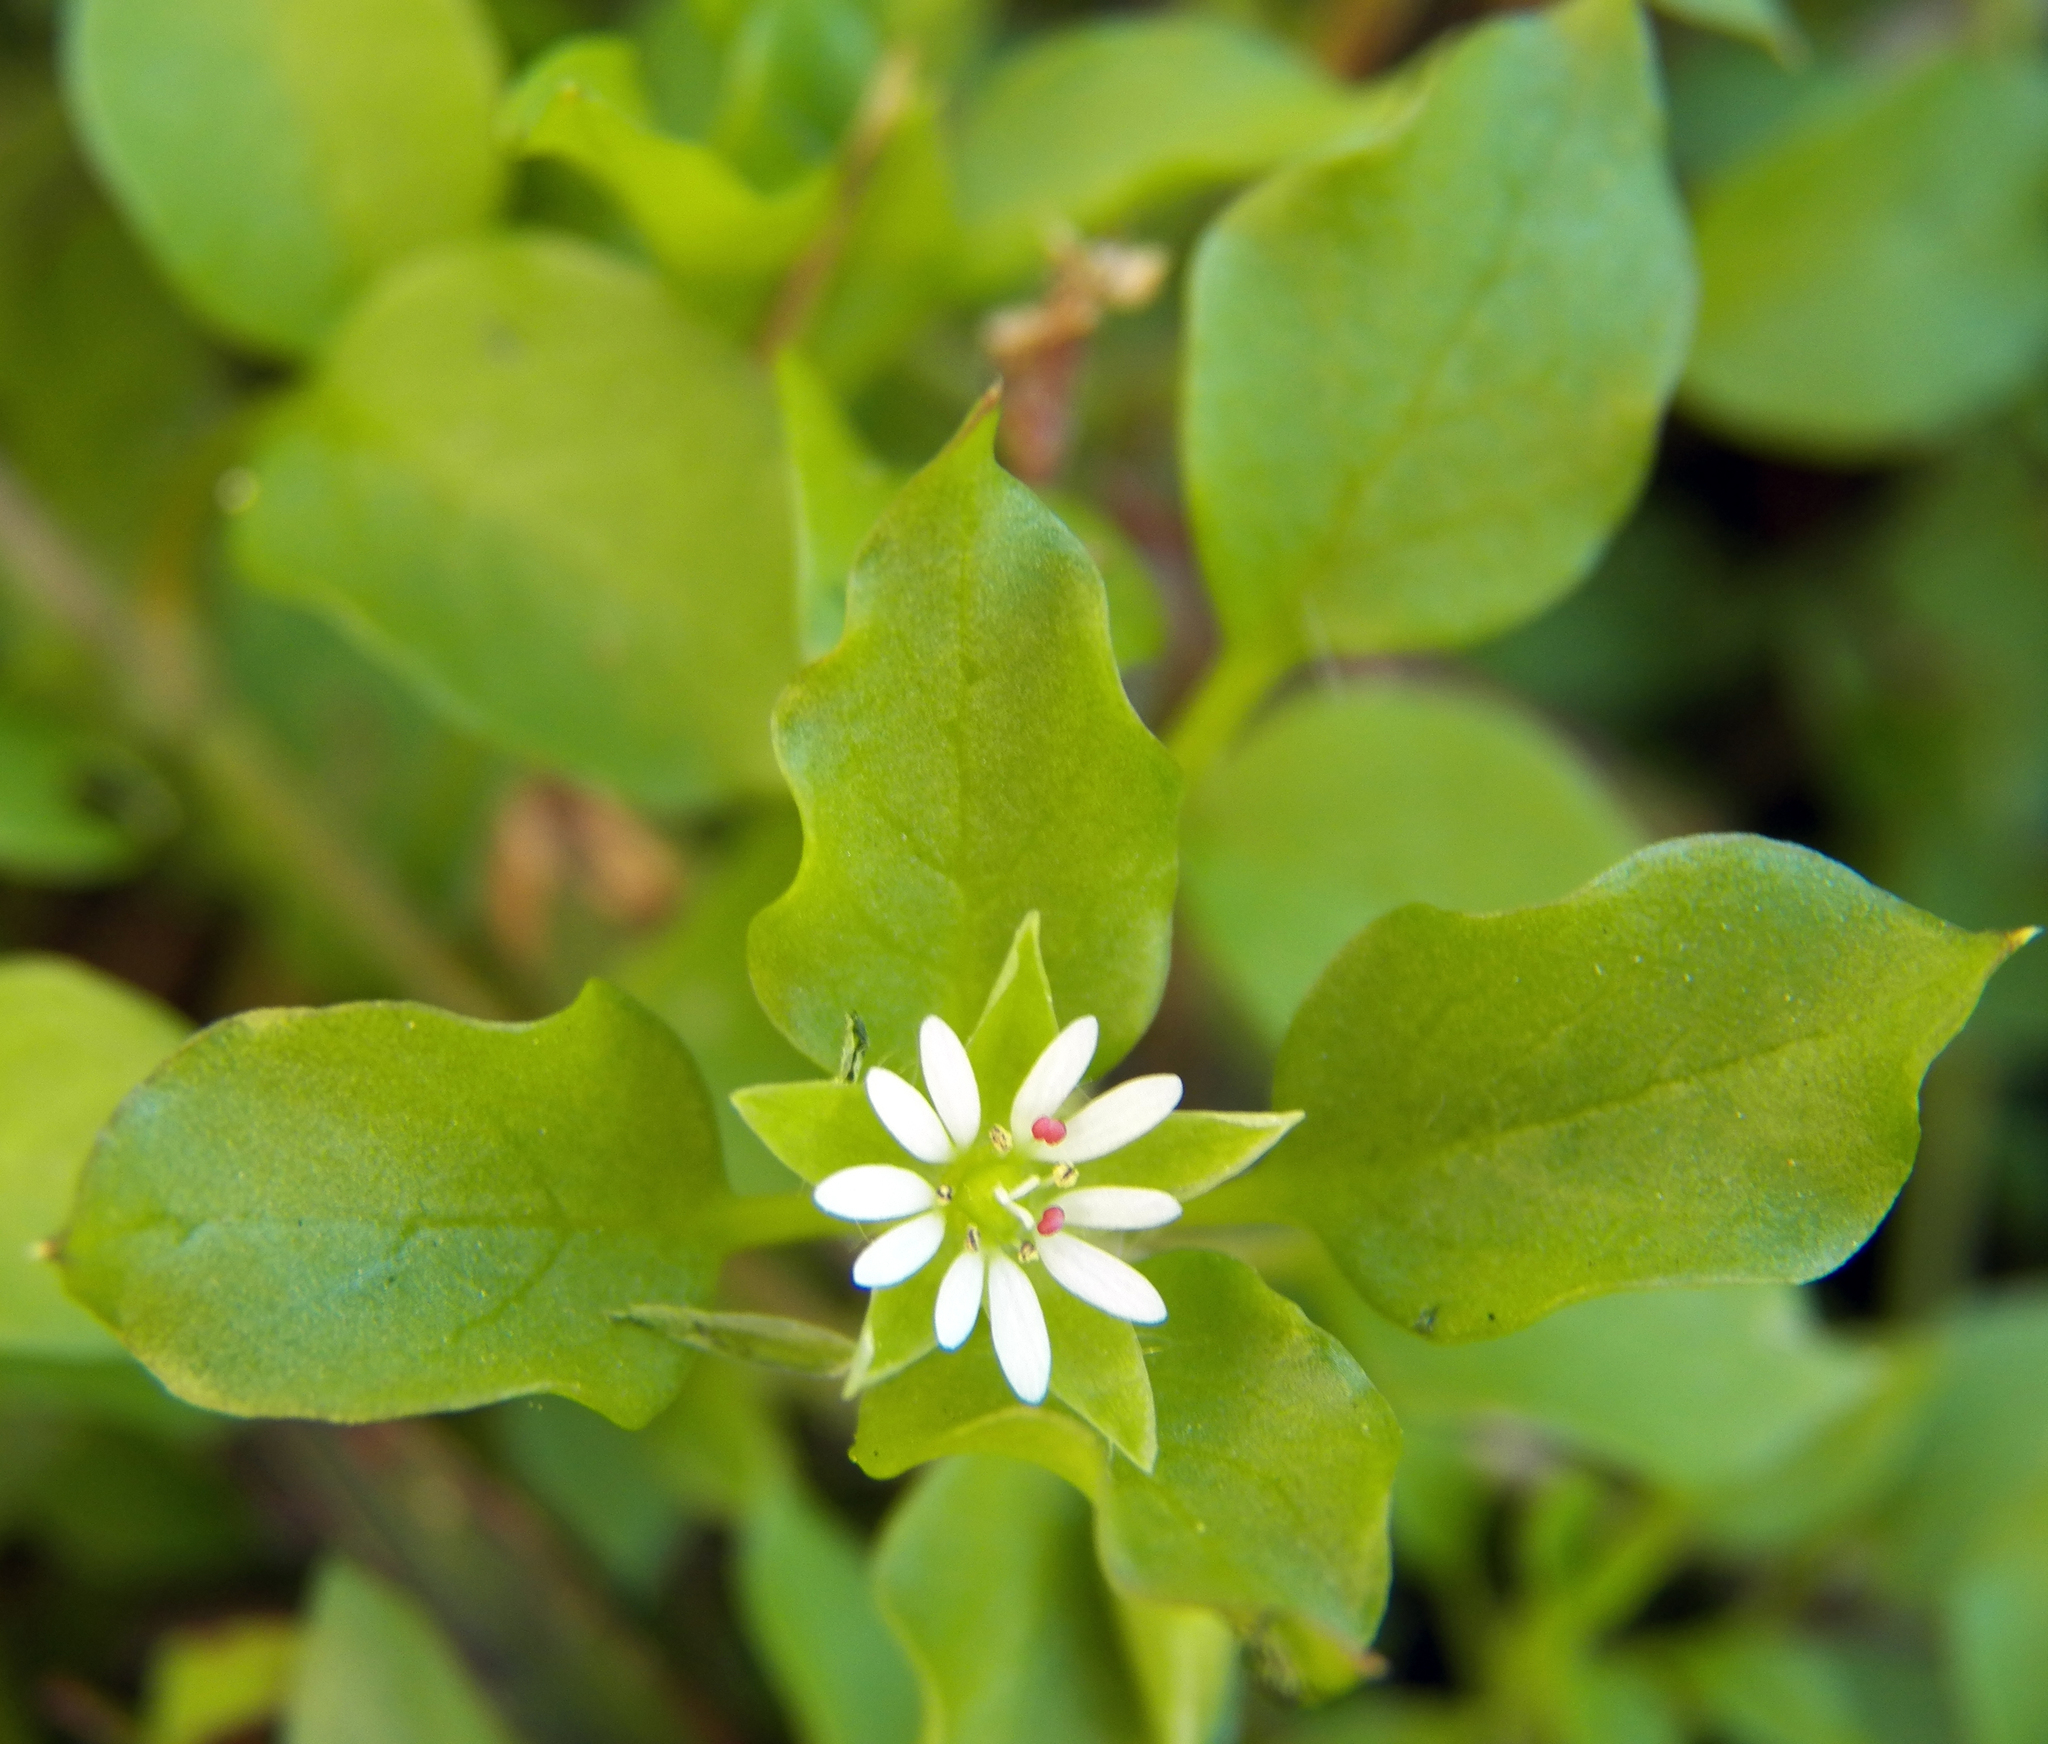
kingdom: Plantae
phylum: Tracheophyta
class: Magnoliopsida
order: Caryophyllales
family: Caryophyllaceae
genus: Stellaria
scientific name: Stellaria media
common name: Common chickweed
